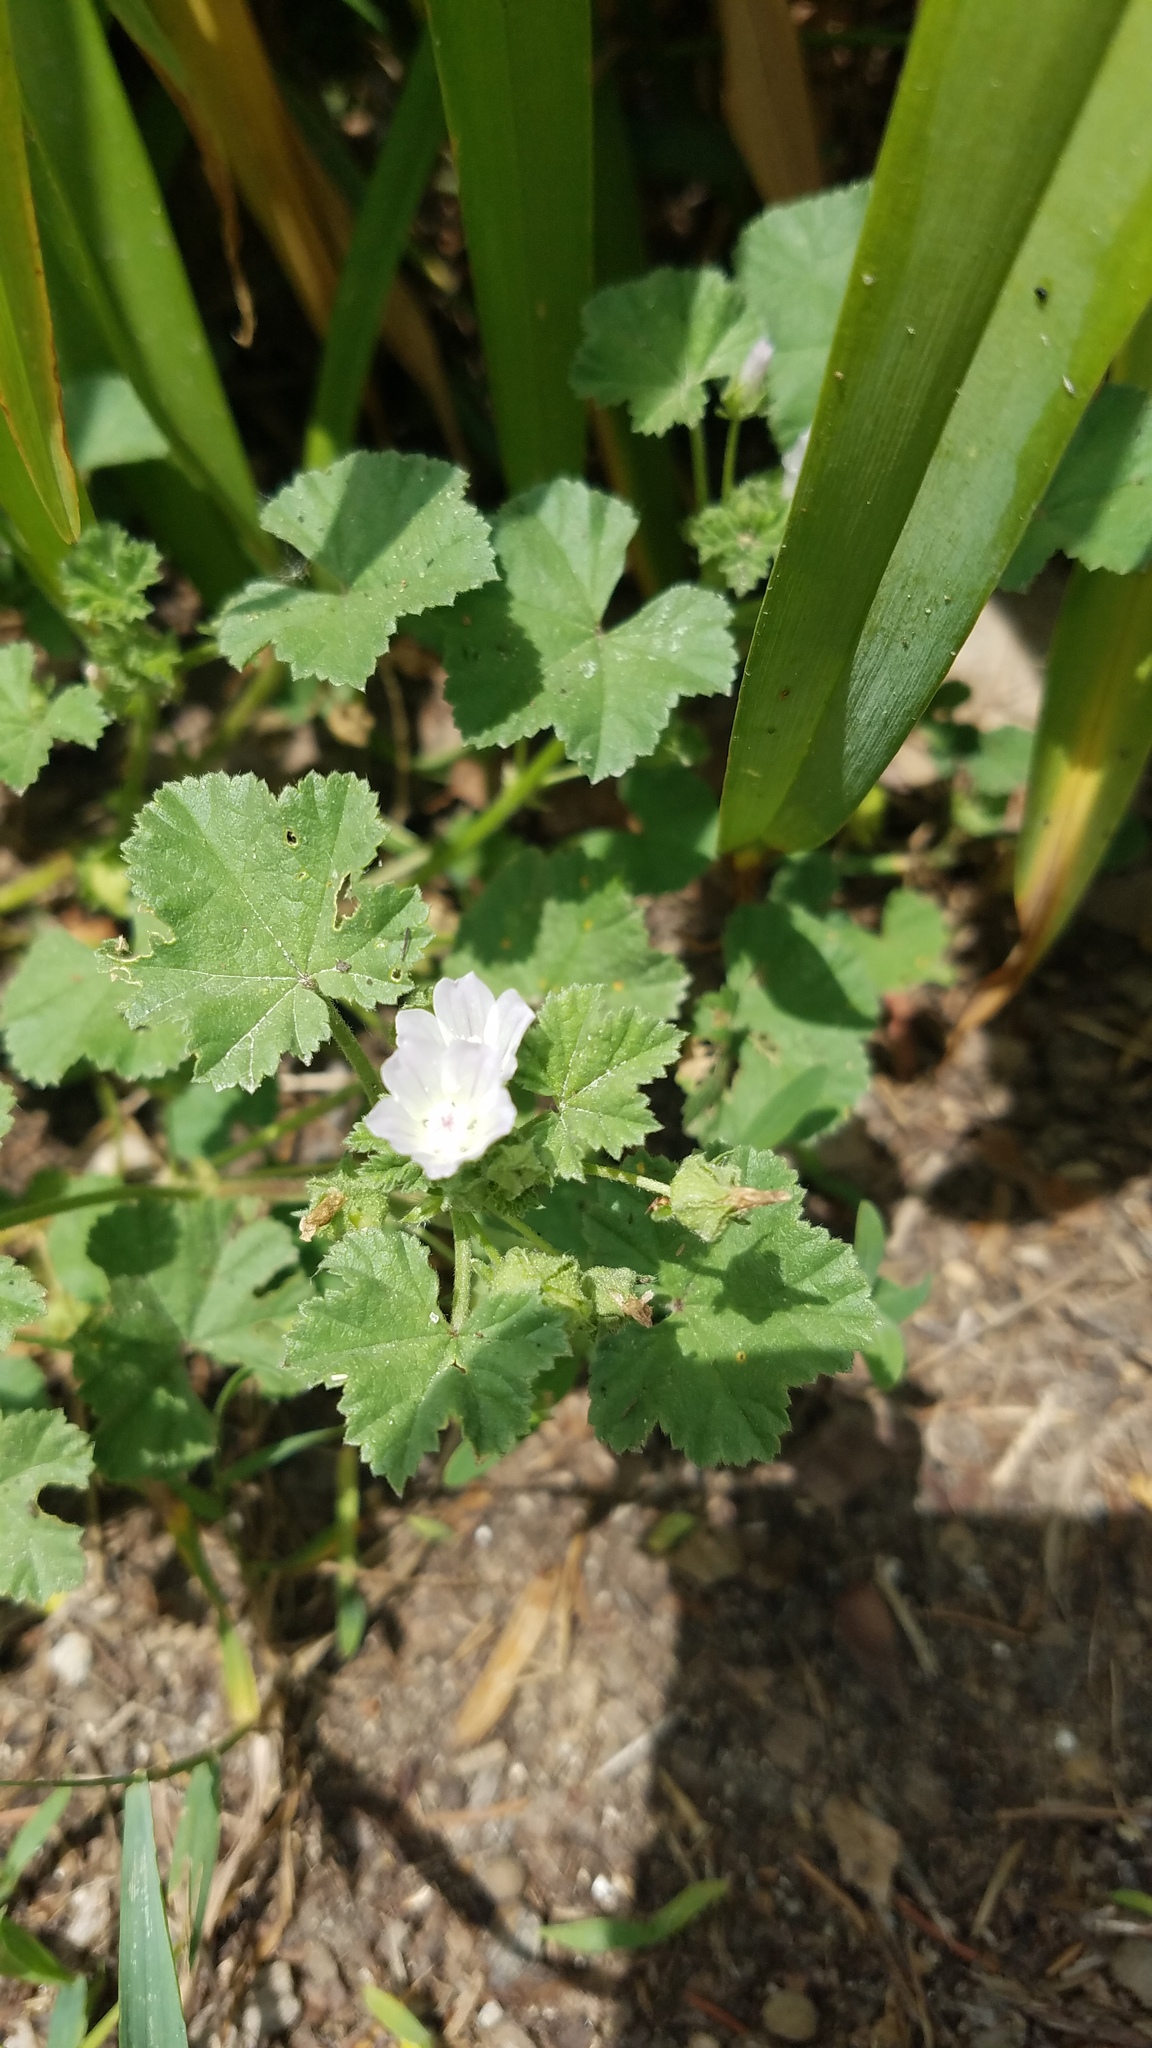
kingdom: Plantae
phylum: Tracheophyta
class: Magnoliopsida
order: Malvales
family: Malvaceae
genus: Malva
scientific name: Malva neglecta
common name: Common mallow
